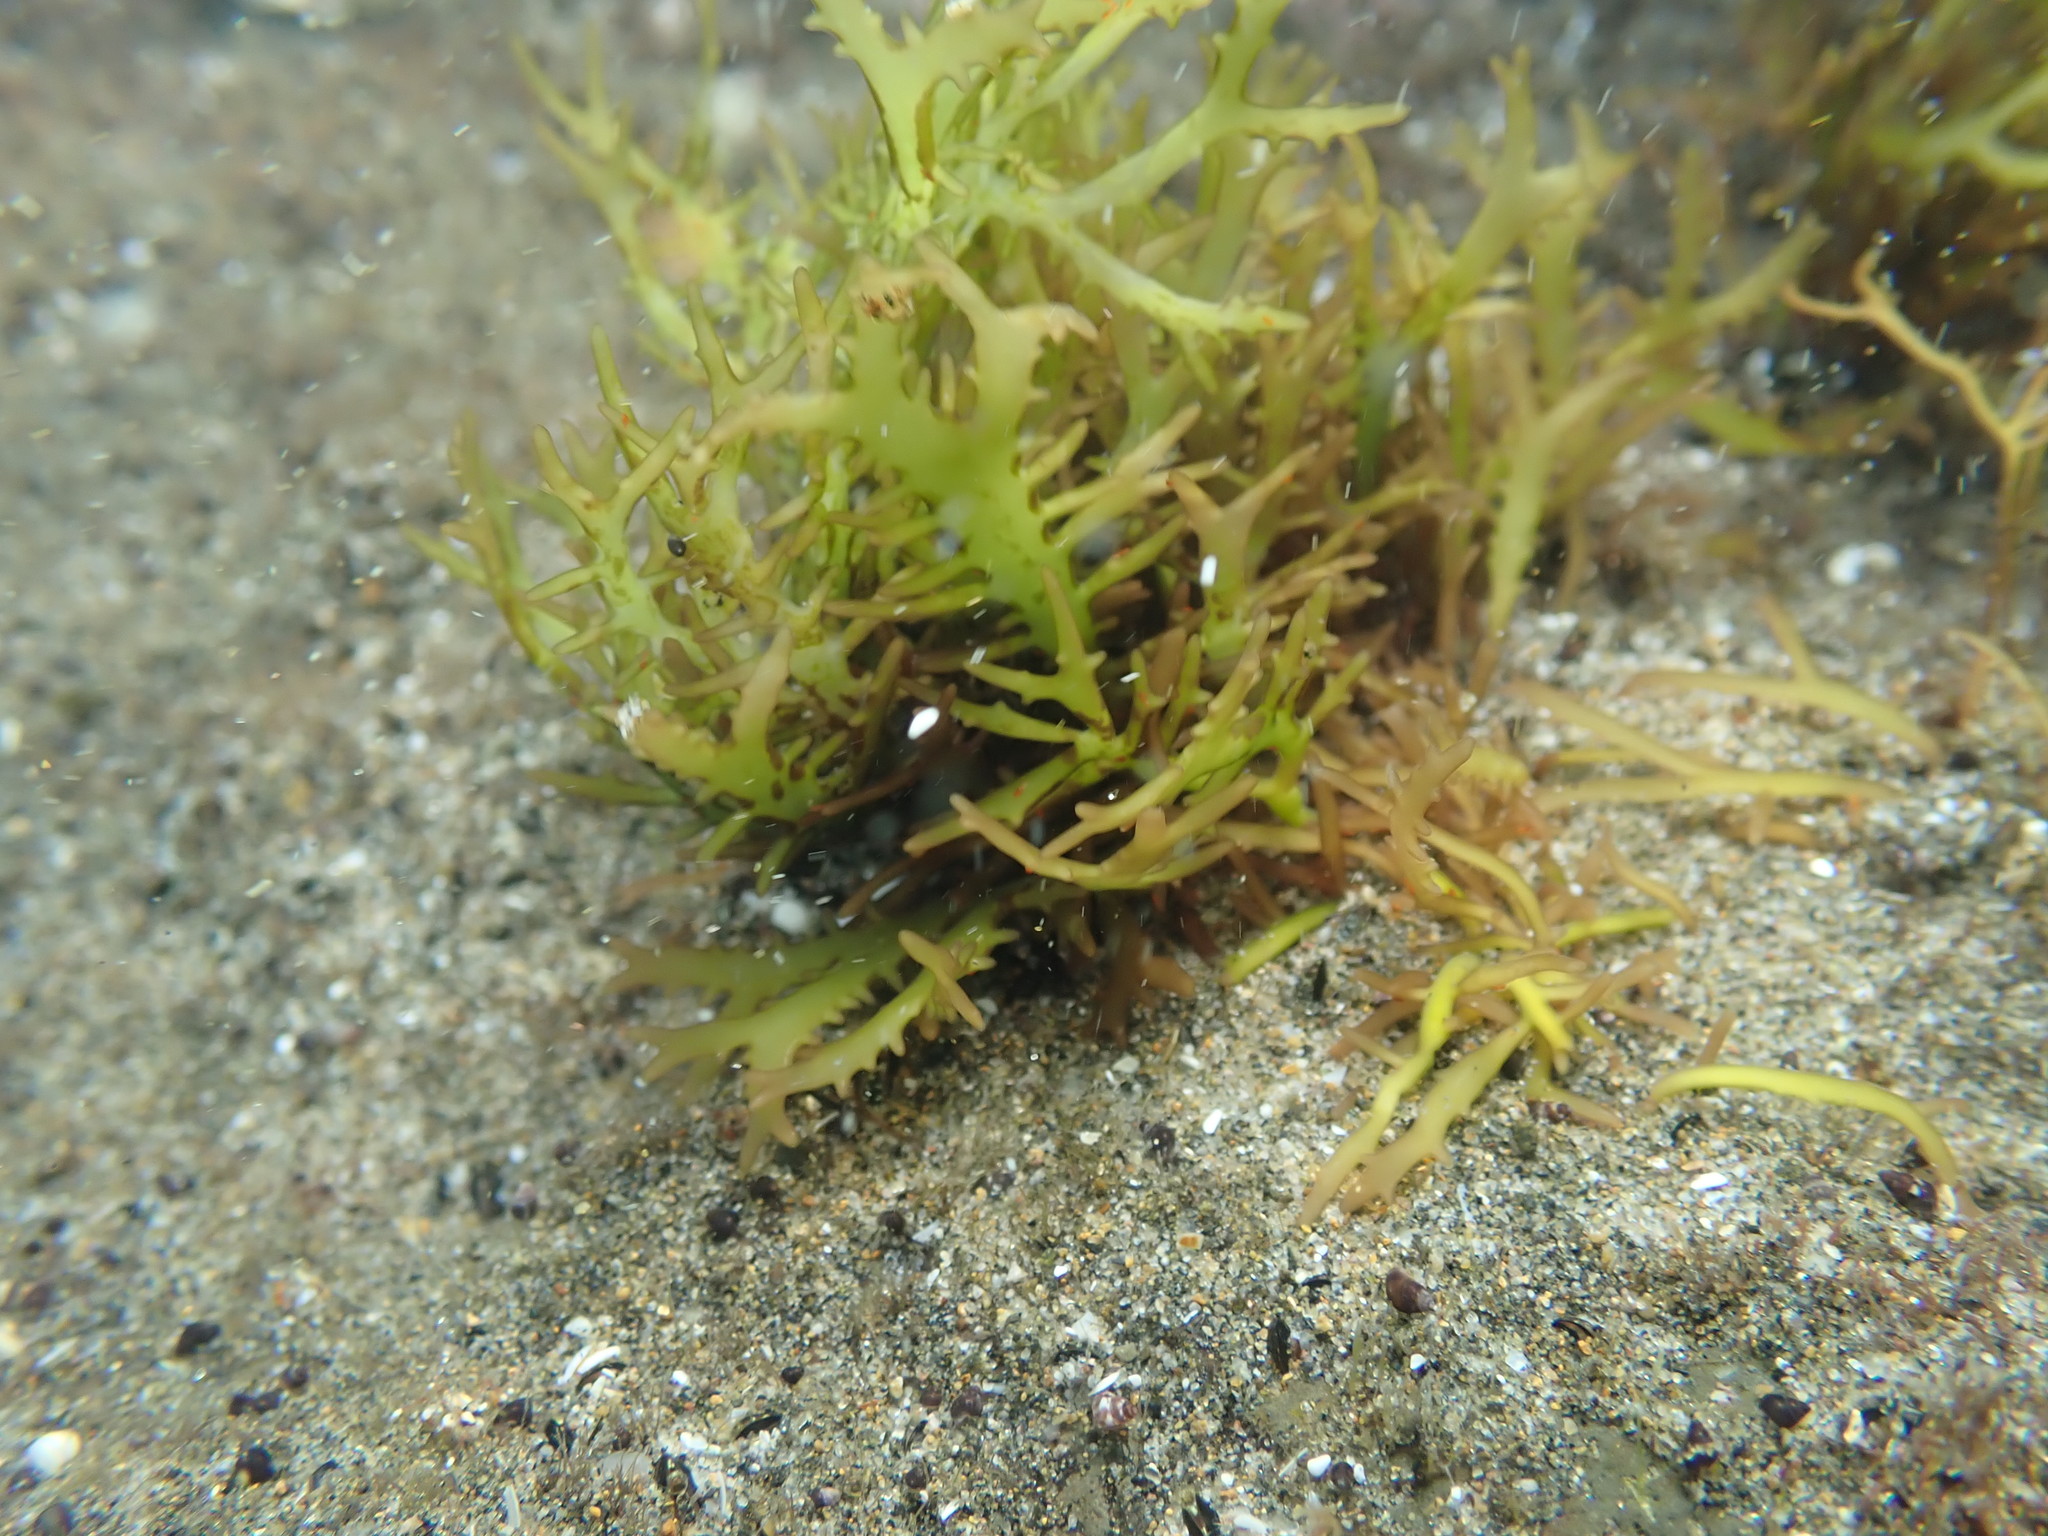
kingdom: Plantae
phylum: Rhodophyta
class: Florideophyceae
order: Gigartinales
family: Gigartinaceae
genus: Gigartina
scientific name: Gigartina macrocarpa
